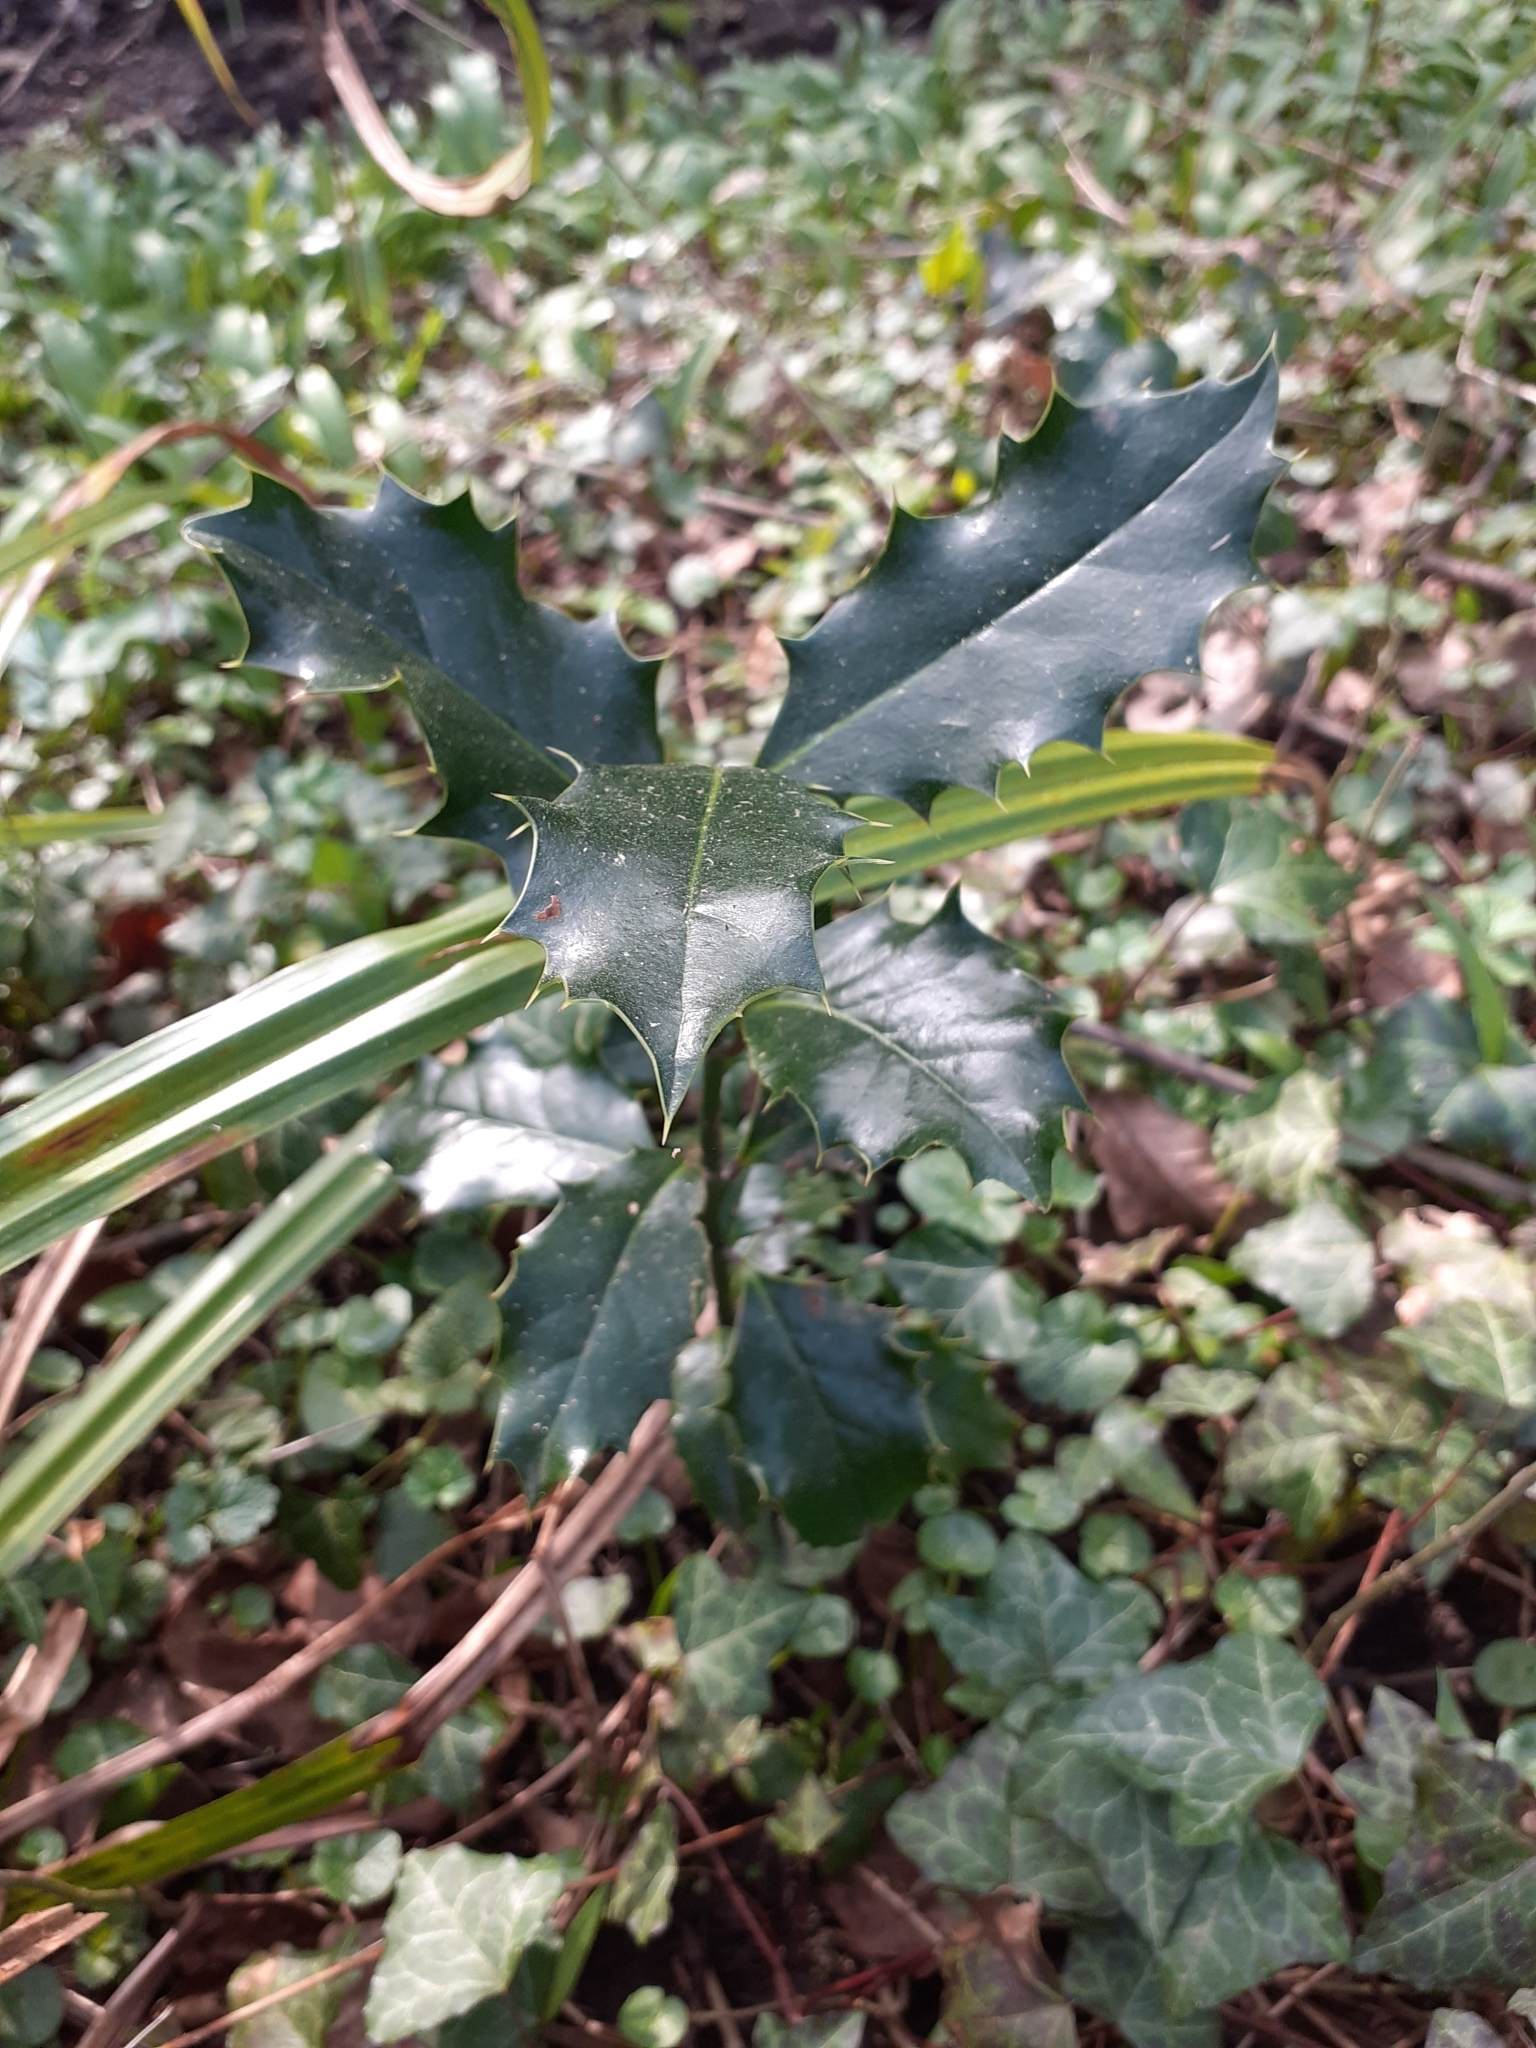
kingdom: Plantae
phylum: Tracheophyta
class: Magnoliopsida
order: Aquifoliales
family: Aquifoliaceae
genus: Ilex
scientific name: Ilex aquifolium
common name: English holly
